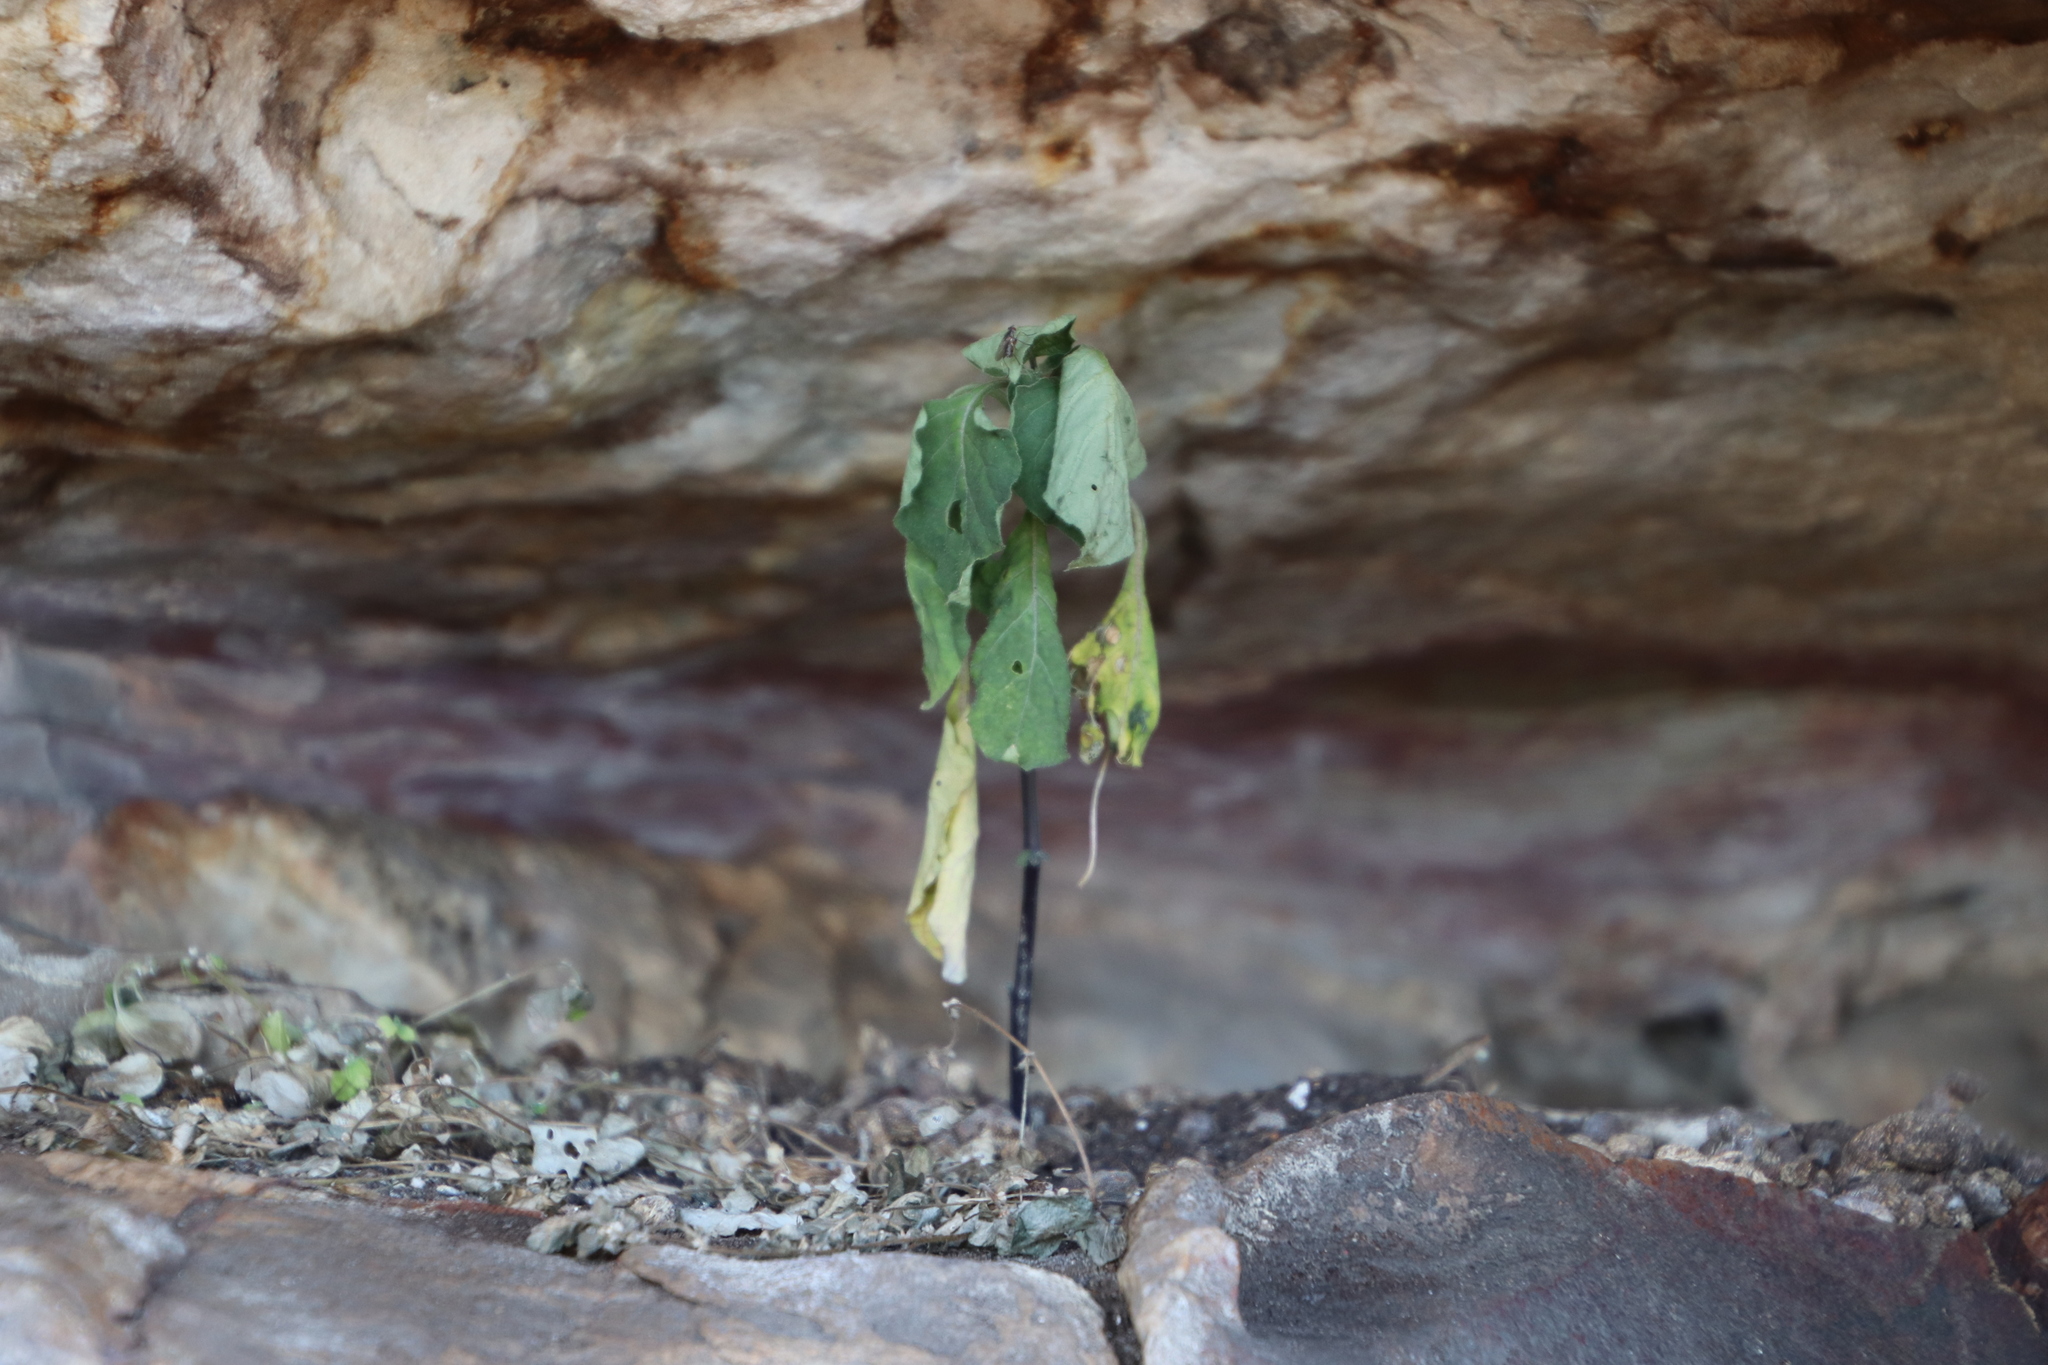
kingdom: Plantae
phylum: Tracheophyta
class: Magnoliopsida
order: Solanales
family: Solanaceae
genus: Solanum
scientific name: Solanum nigrum
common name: Black nightshade
